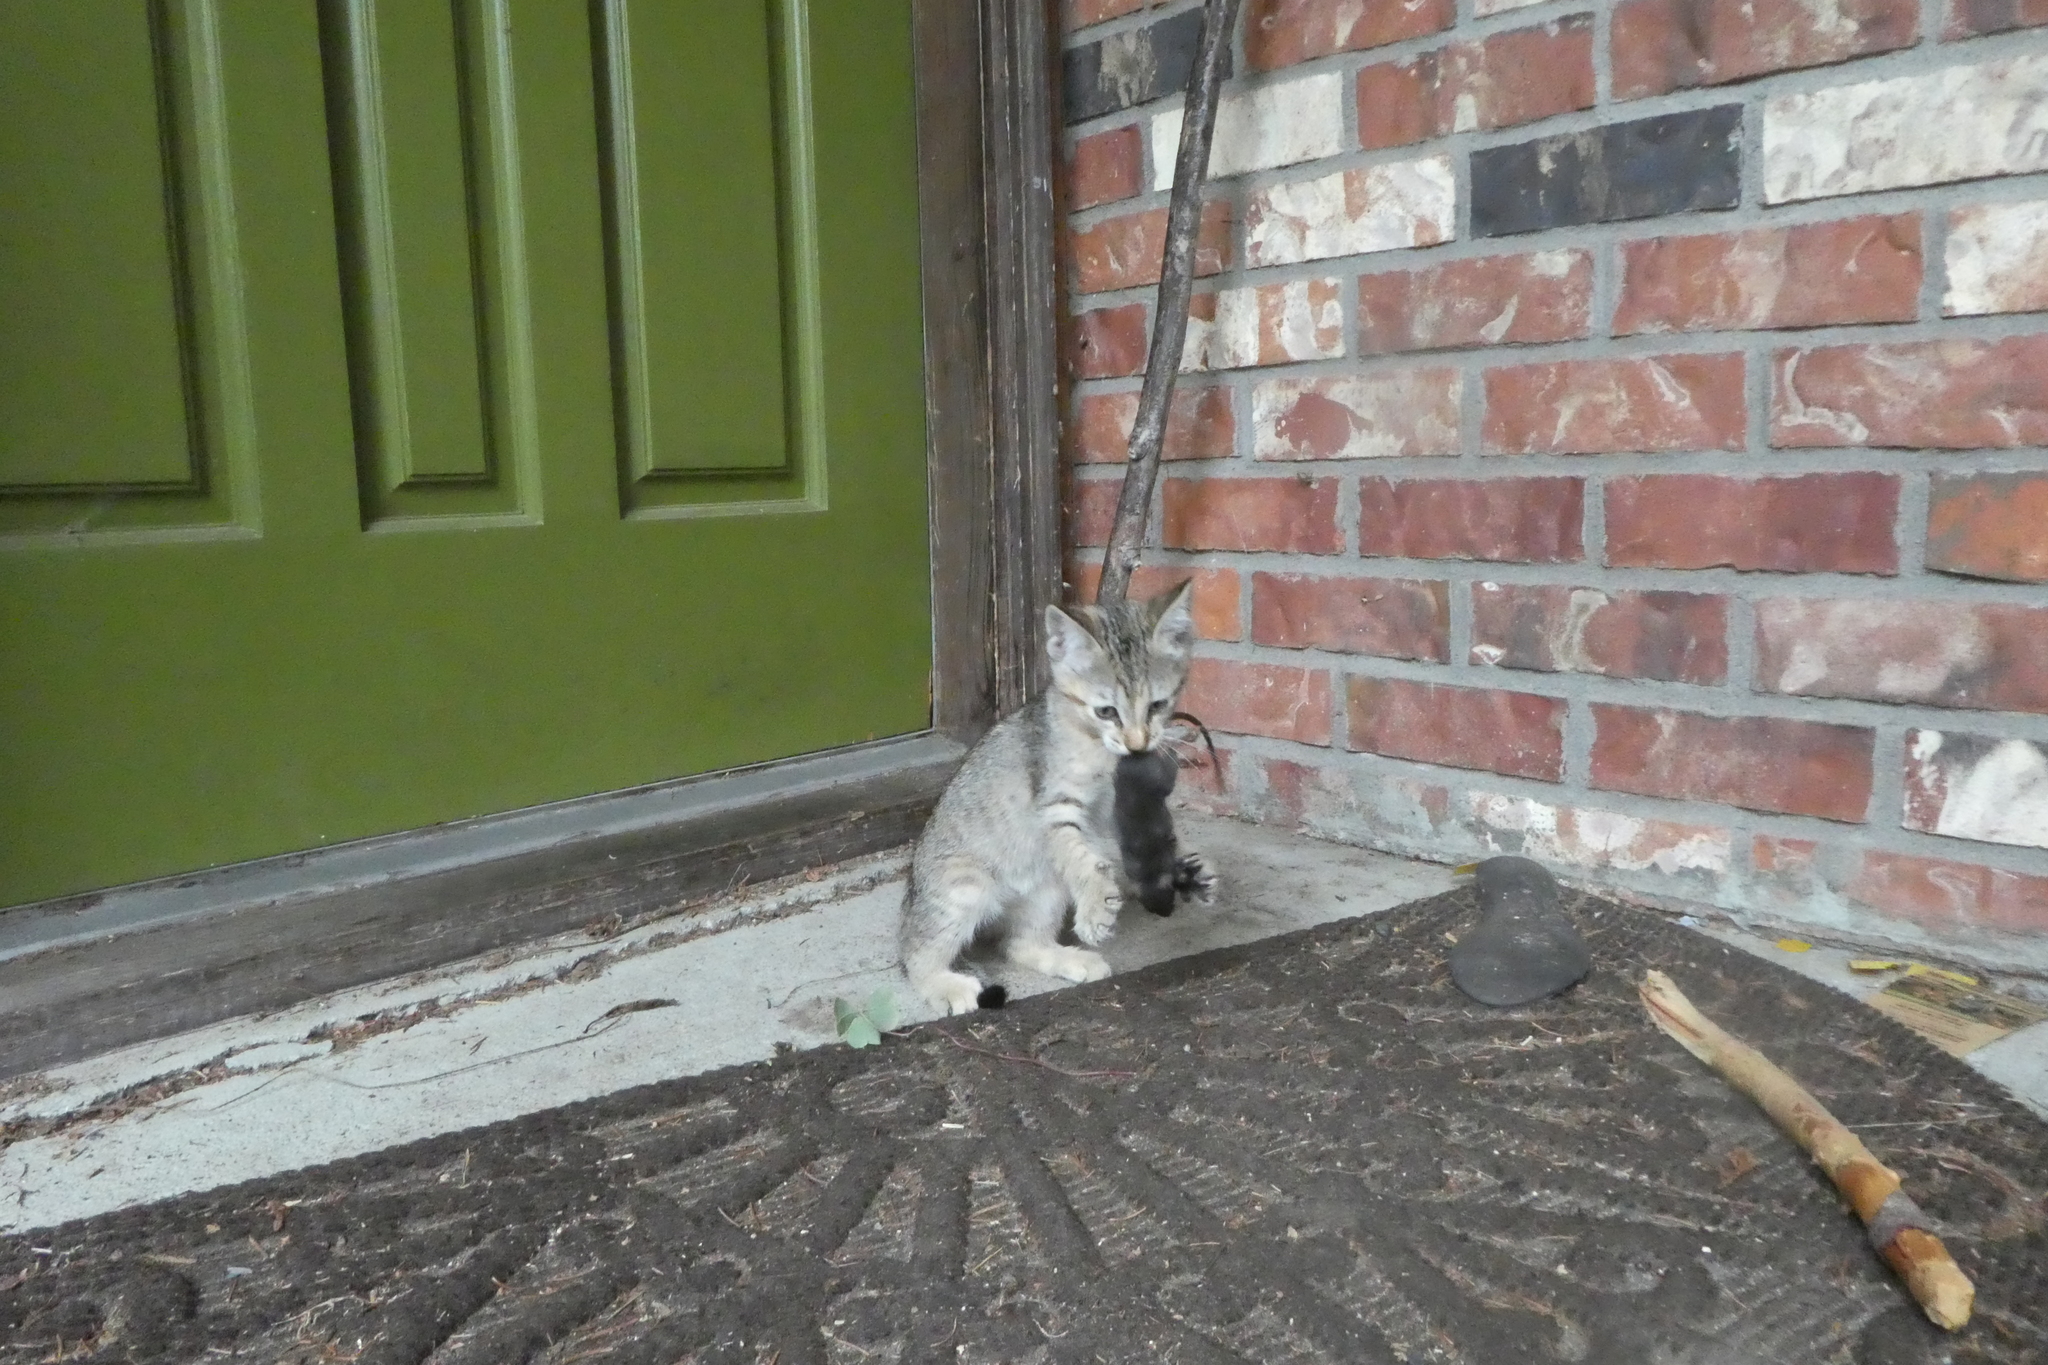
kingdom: Animalia
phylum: Chordata
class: Mammalia
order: Rodentia
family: Muridae
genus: Rattus
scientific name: Rattus rattus
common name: Black rat
